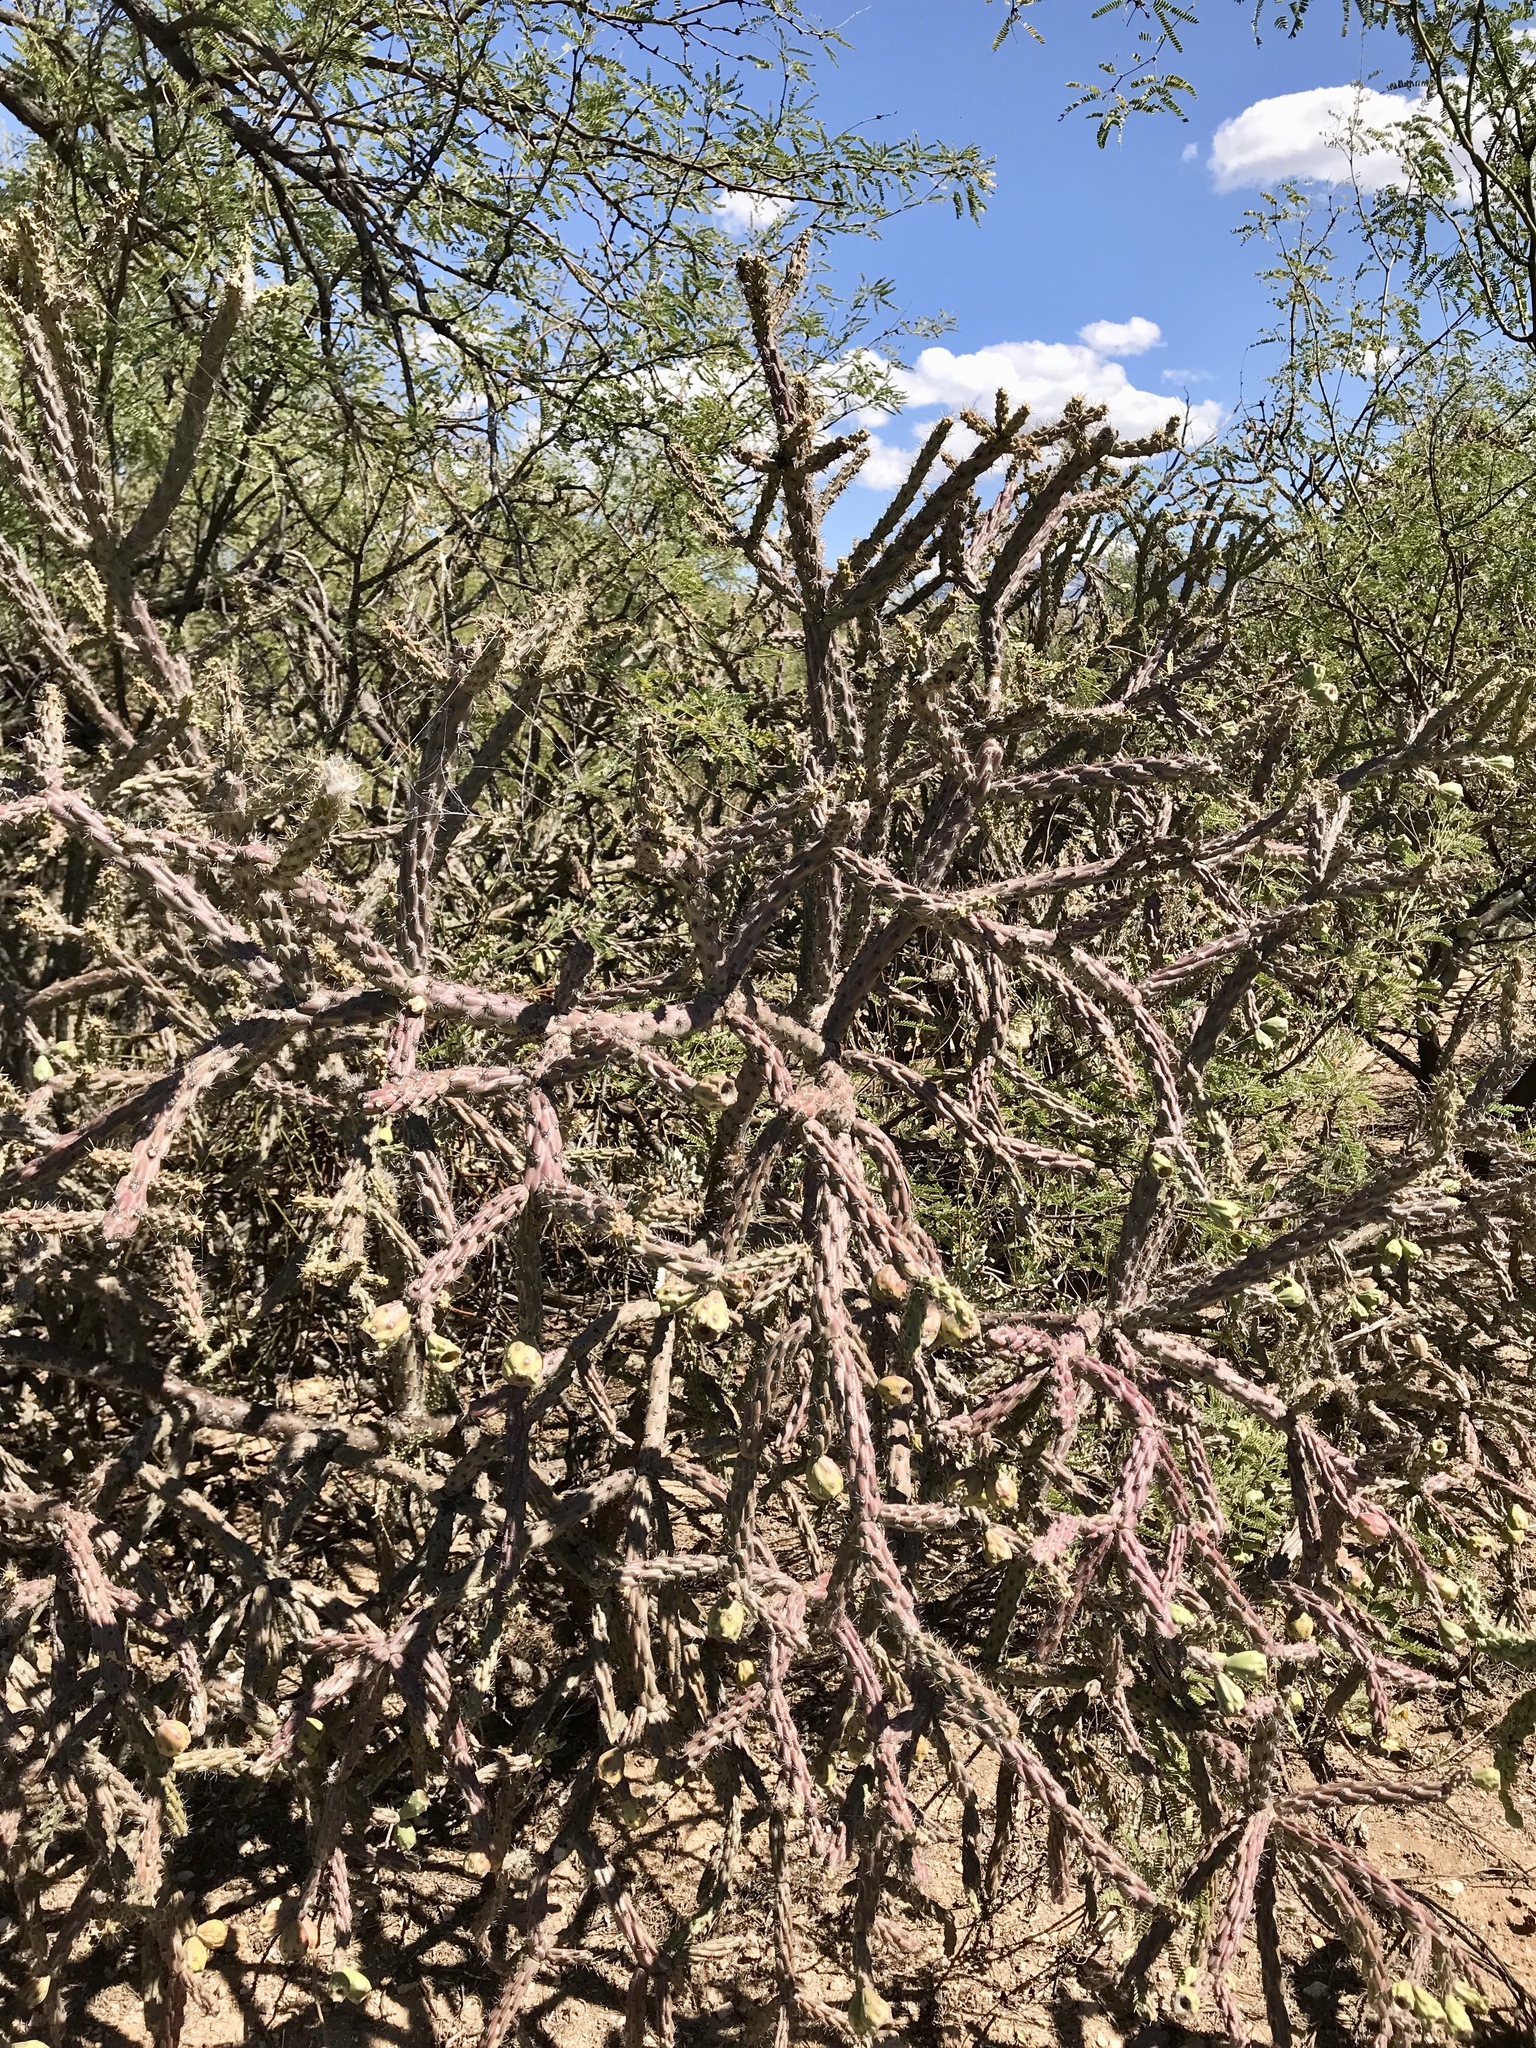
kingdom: Plantae
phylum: Tracheophyta
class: Magnoliopsida
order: Caryophyllales
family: Cactaceae
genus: Cylindropuntia
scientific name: Cylindropuntia thurberi
